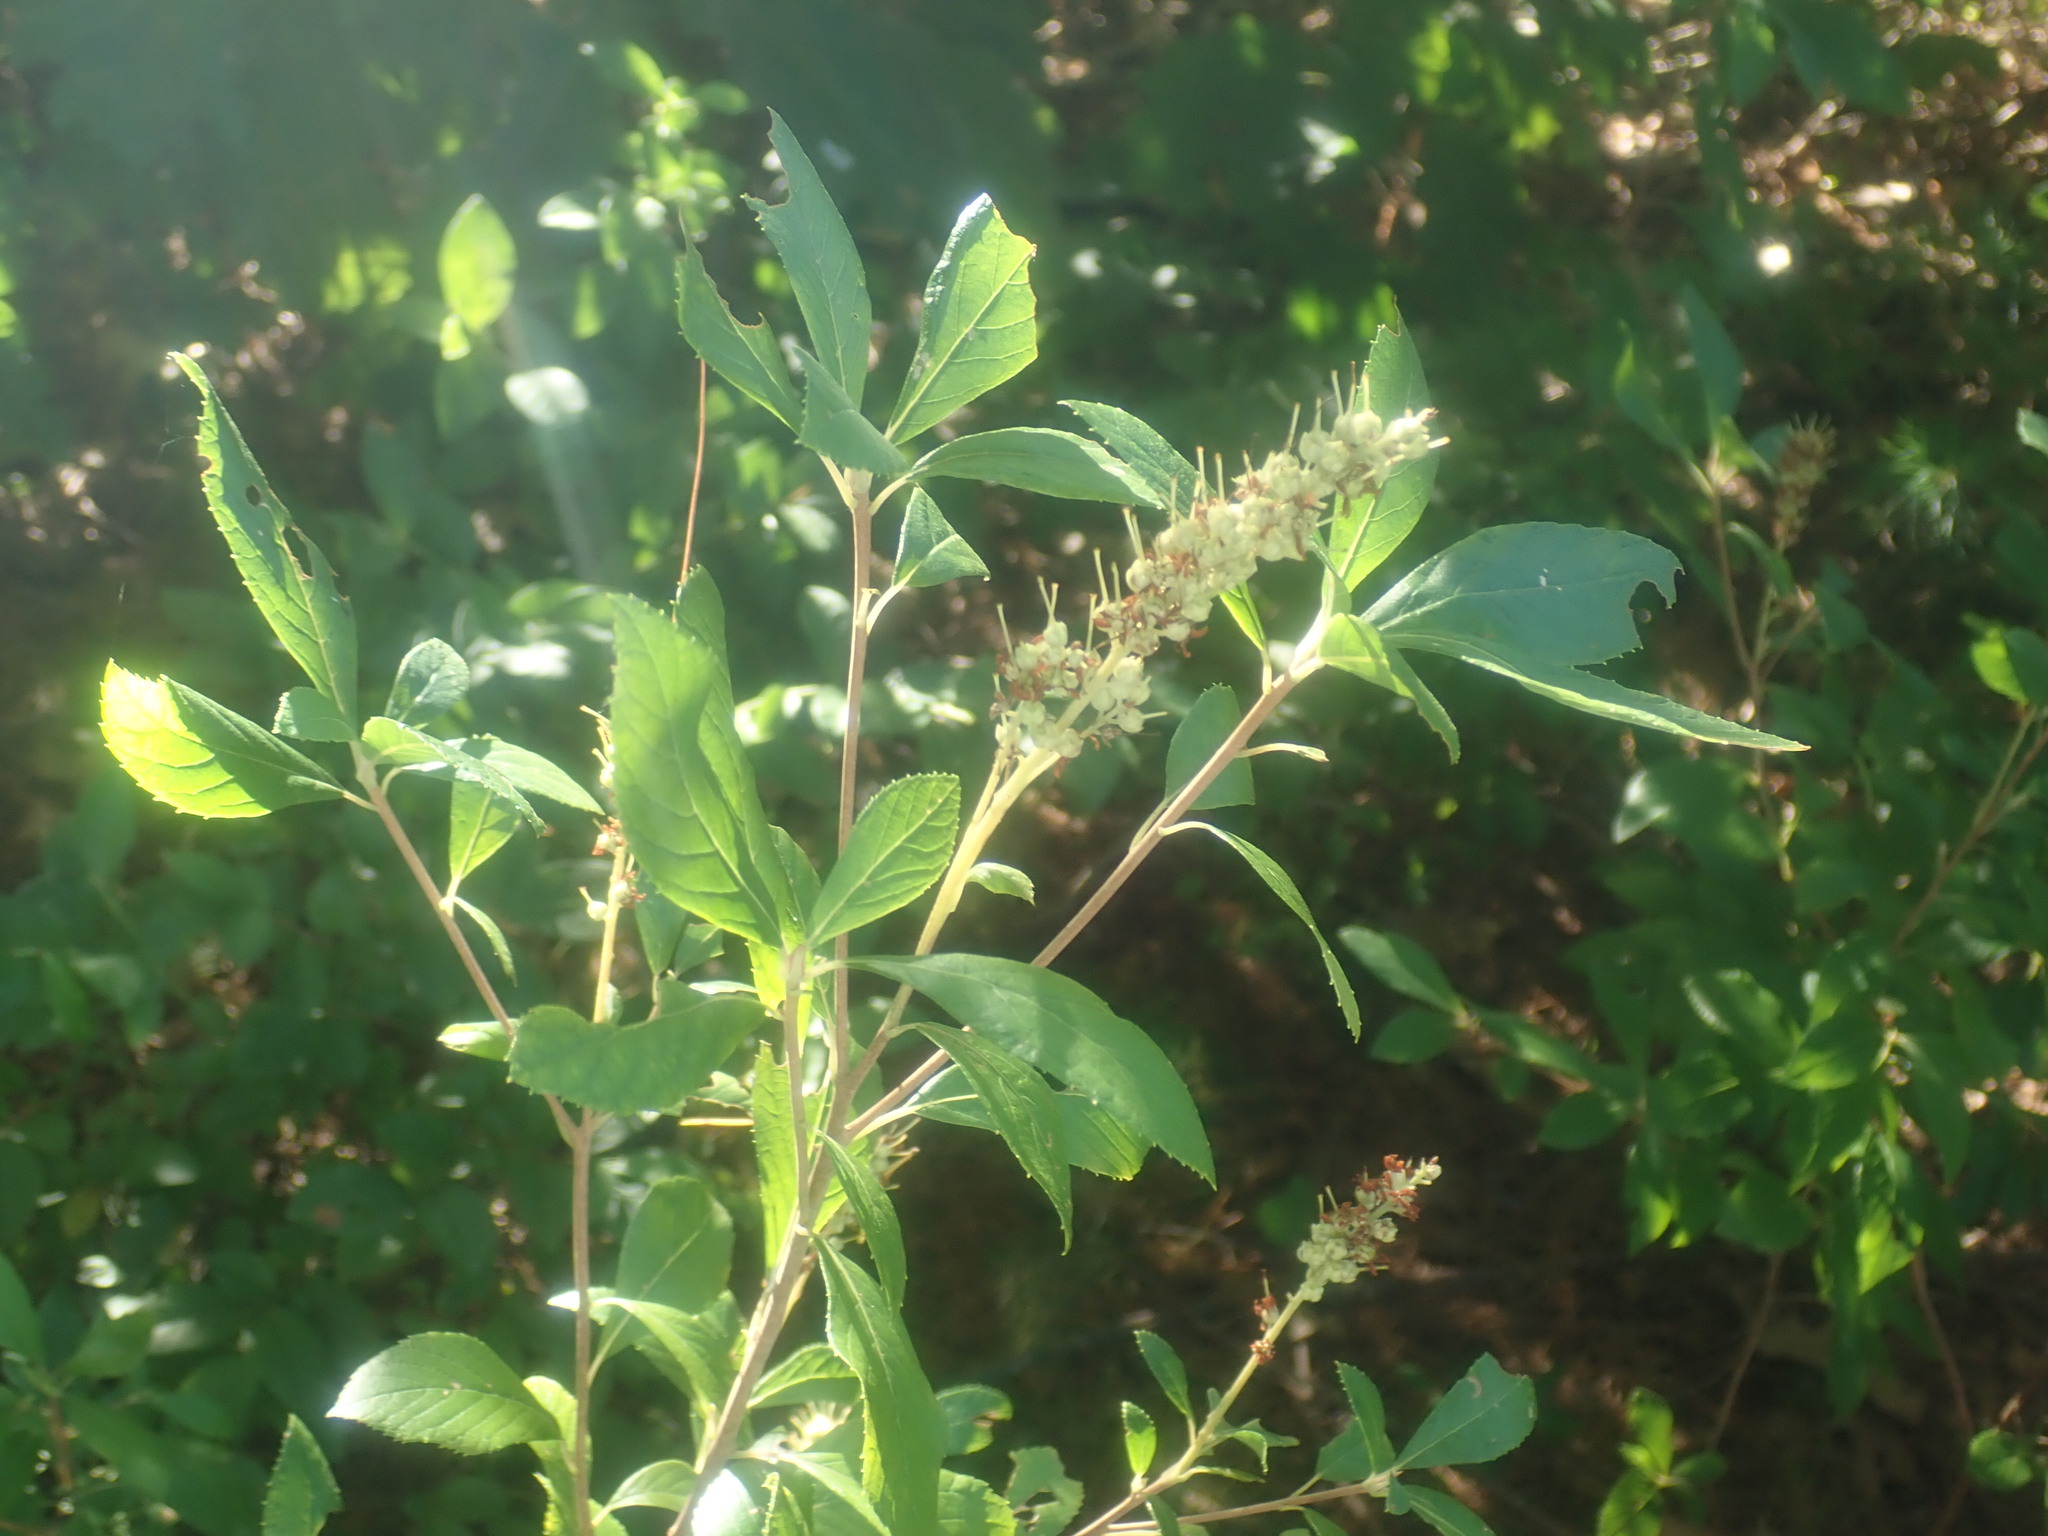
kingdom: Plantae
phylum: Tracheophyta
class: Magnoliopsida
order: Ericales
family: Clethraceae
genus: Clethra
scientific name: Clethra alnifolia
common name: Sweet pepperbush
